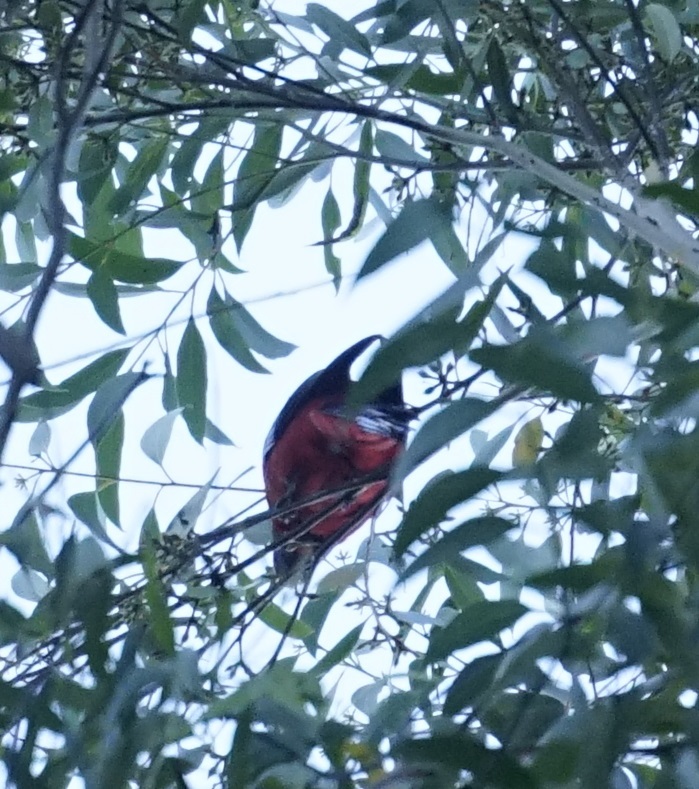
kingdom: Animalia
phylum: Chordata
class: Aves
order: Psittaciformes
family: Psittacidae
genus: Platycercus
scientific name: Platycercus elegans
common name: Crimson rosella
